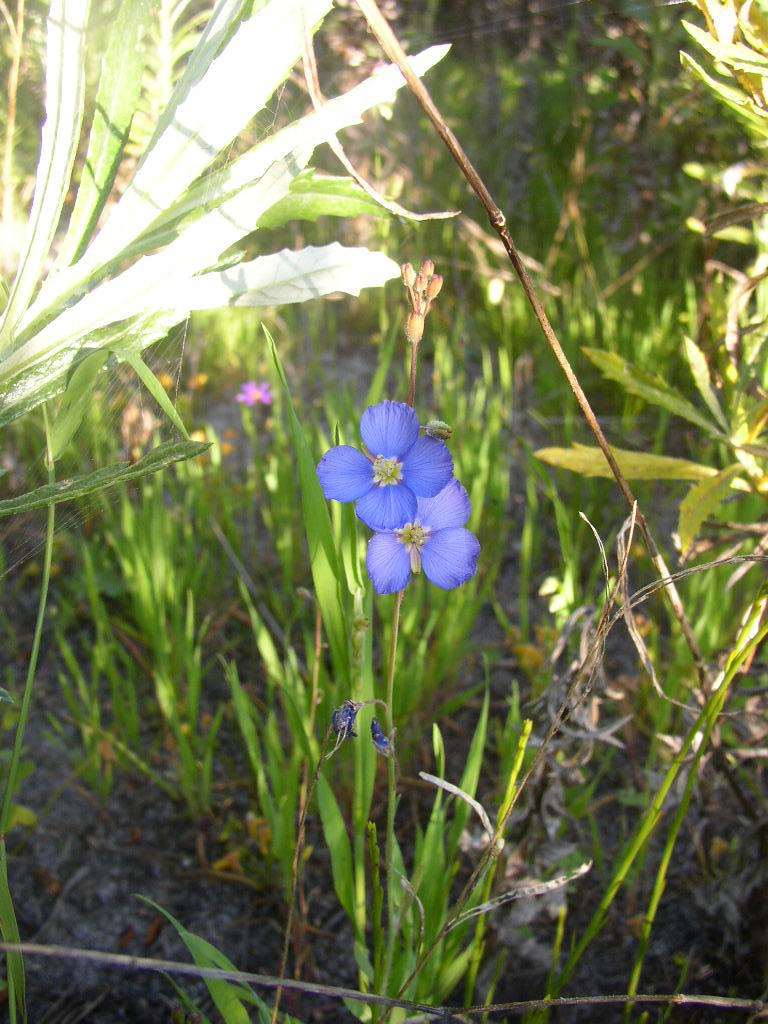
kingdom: Plantae
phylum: Tracheophyta
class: Magnoliopsida
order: Brassicales
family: Brassicaceae
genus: Heliophila
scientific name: Heliophila africana
